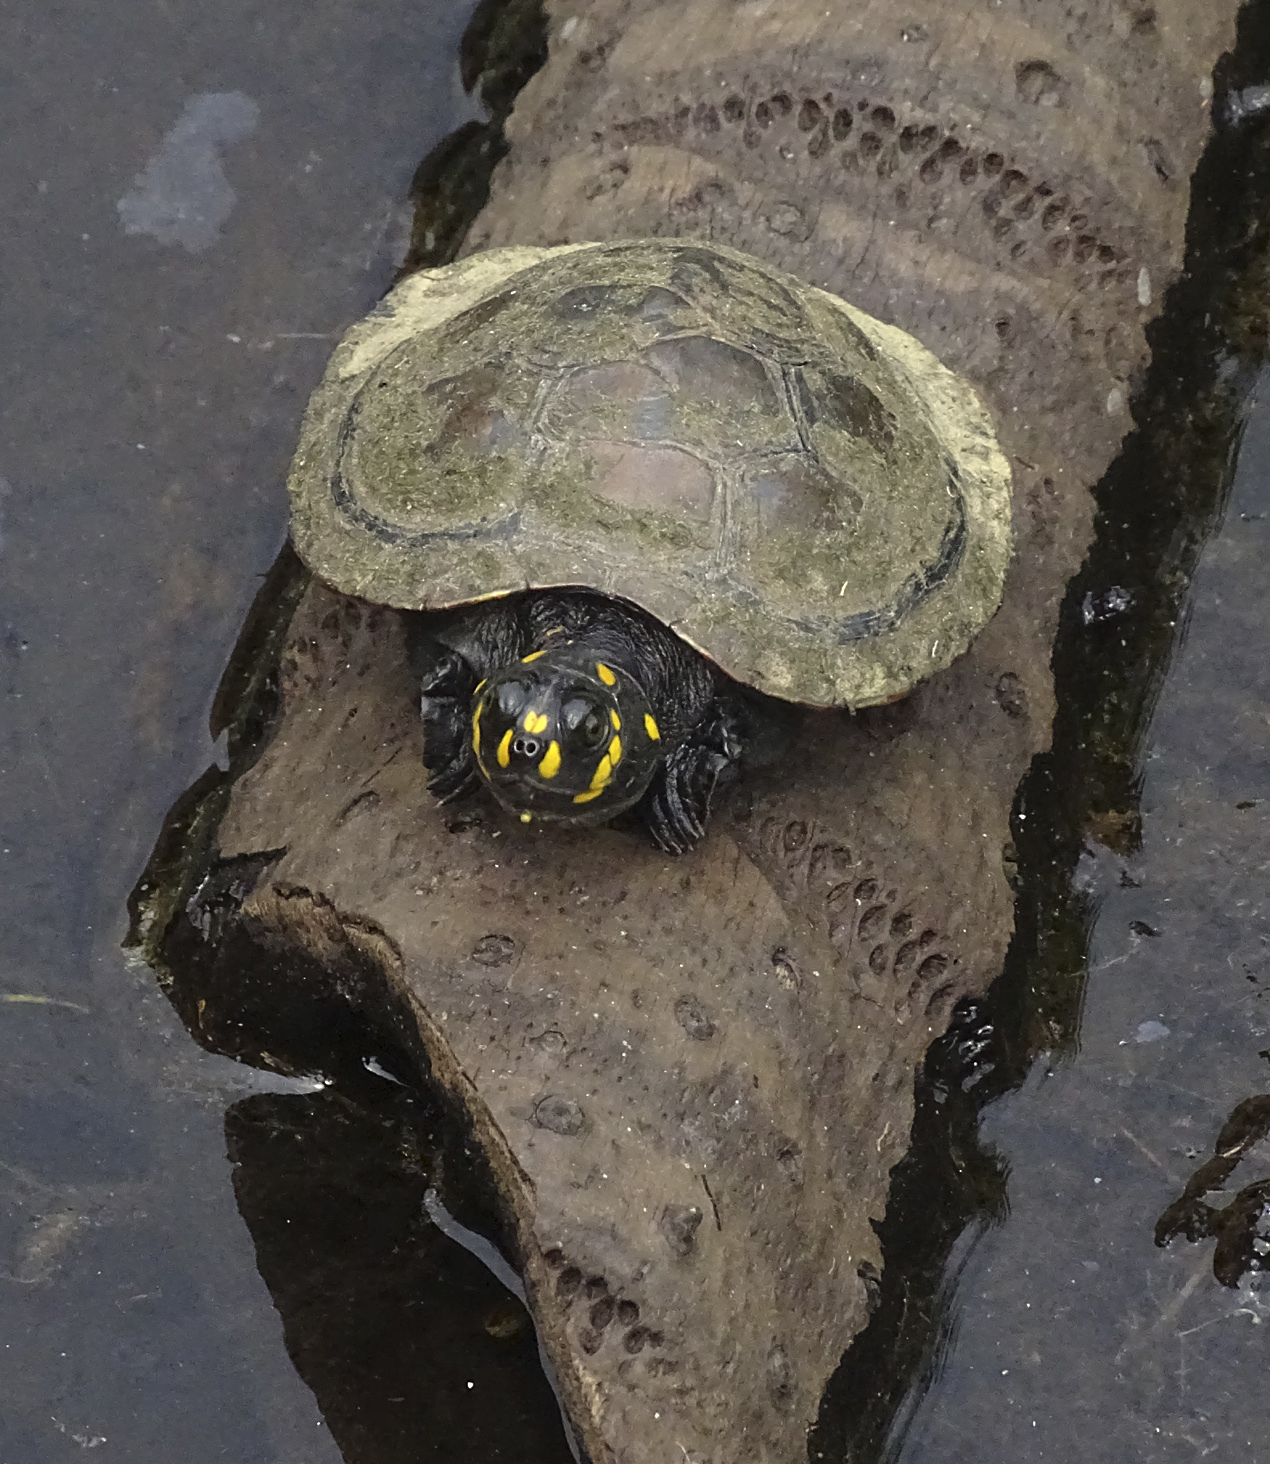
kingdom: Animalia
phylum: Chordata
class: Testudines
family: Podocnemididae
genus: Podocnemis
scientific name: Podocnemis unifilis
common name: Yellow-spotted amazon river turtle
